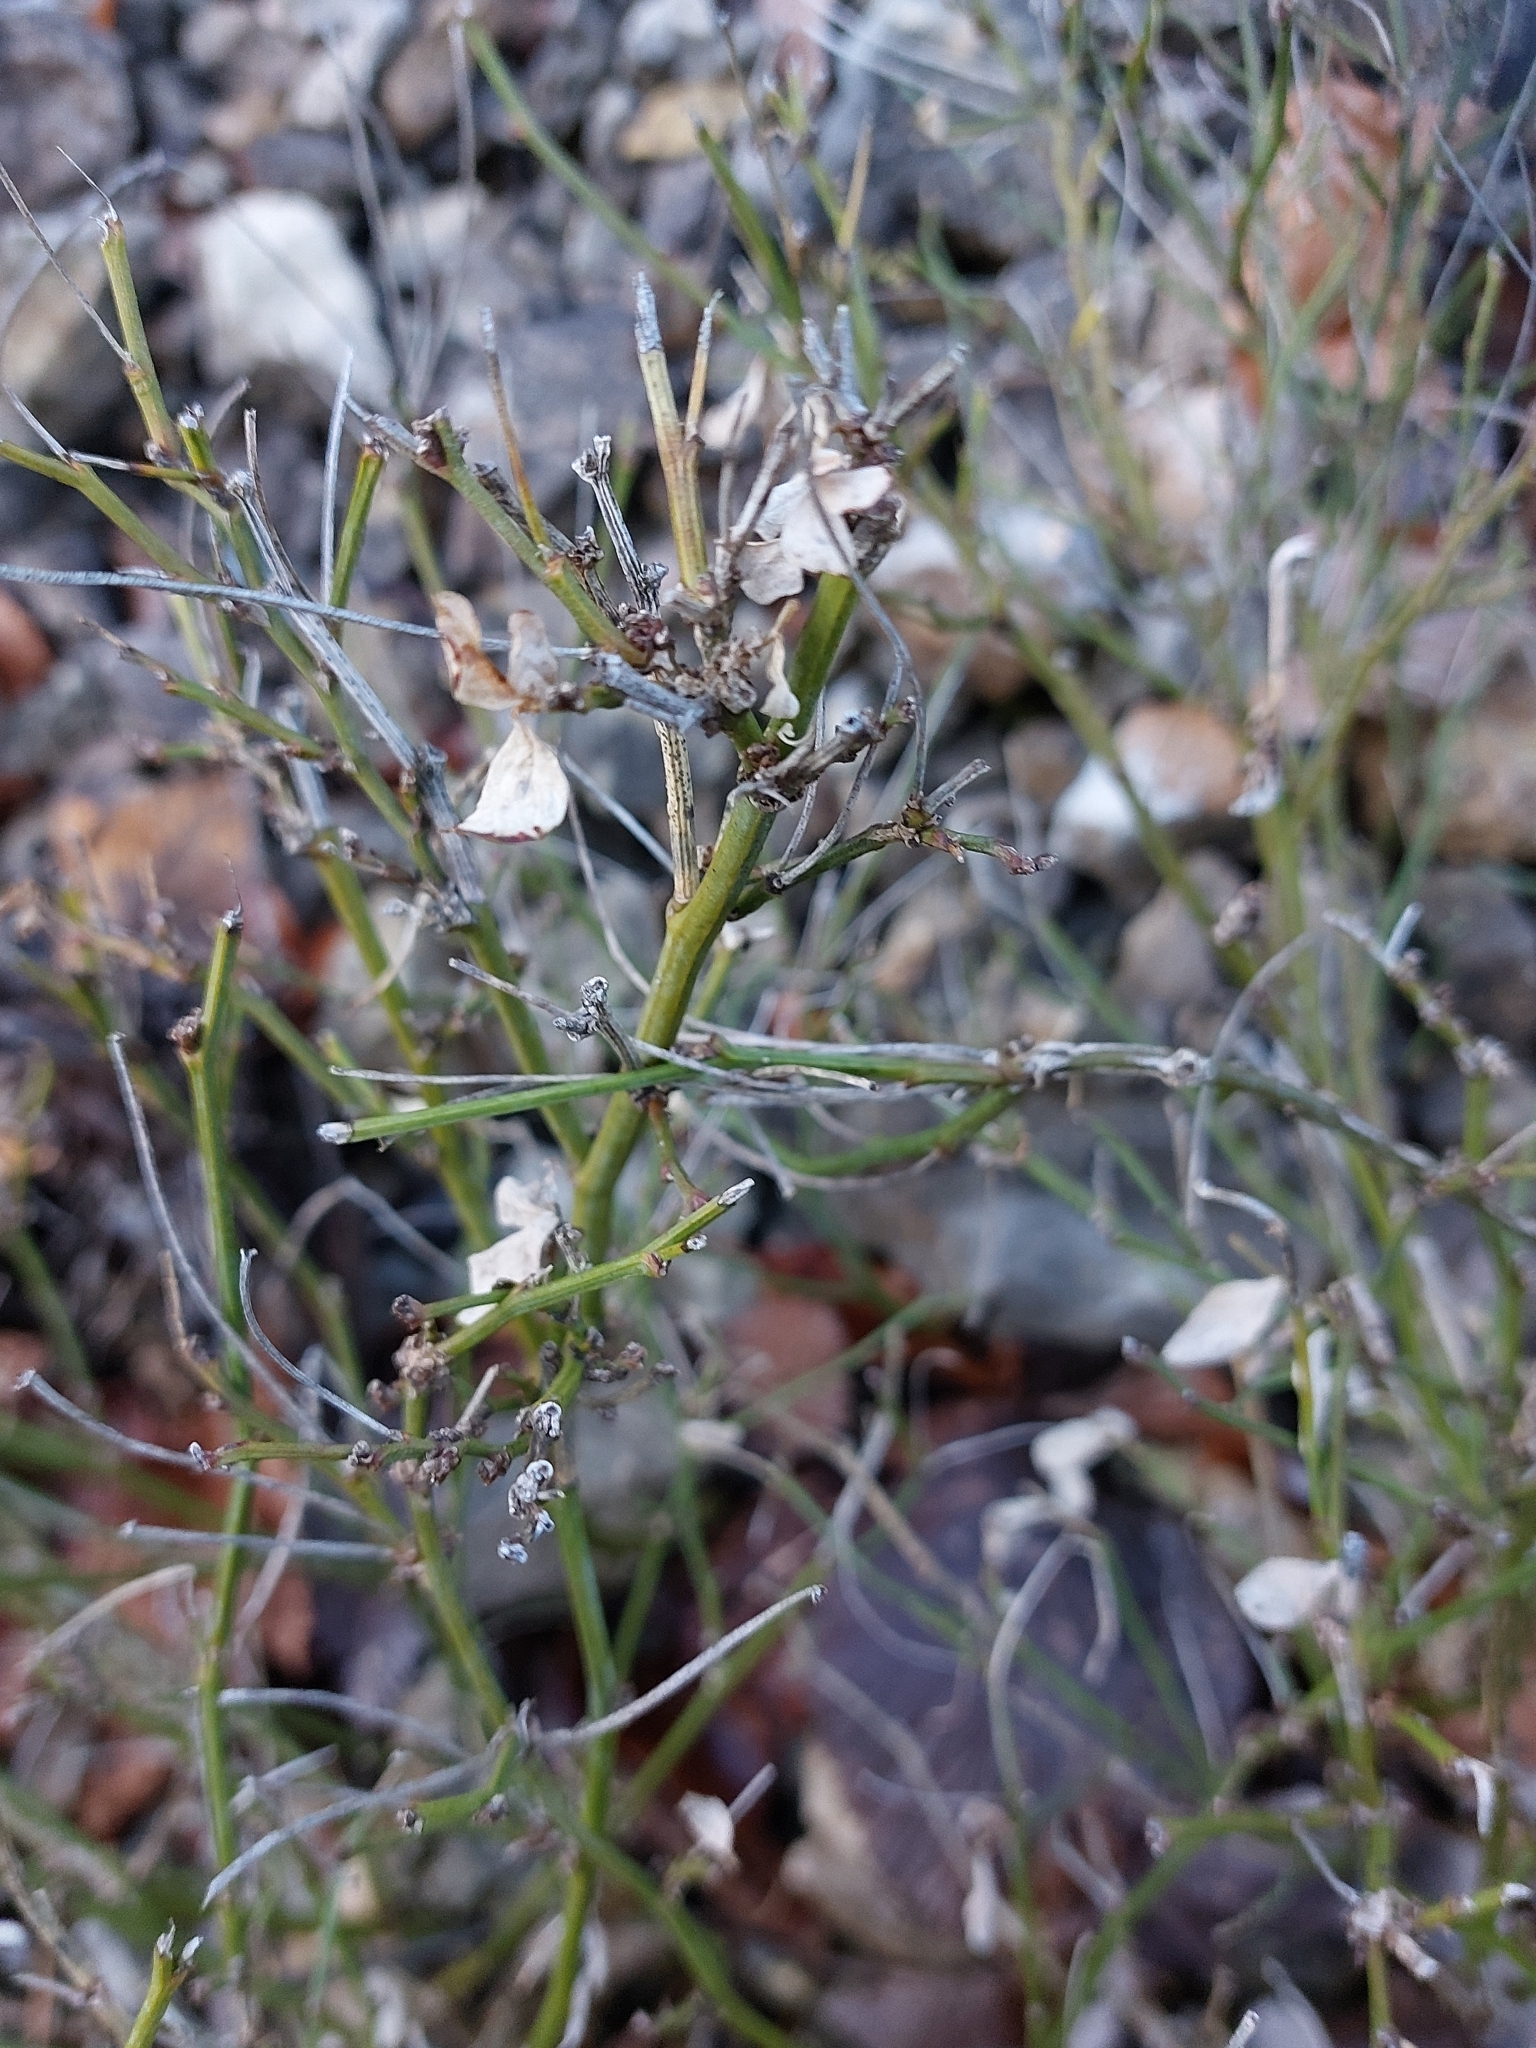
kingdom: Plantae
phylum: Tracheophyta
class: Magnoliopsida
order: Ericales
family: Ericaceae
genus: Vaccinium
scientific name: Vaccinium myrtillus
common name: Bilberry
